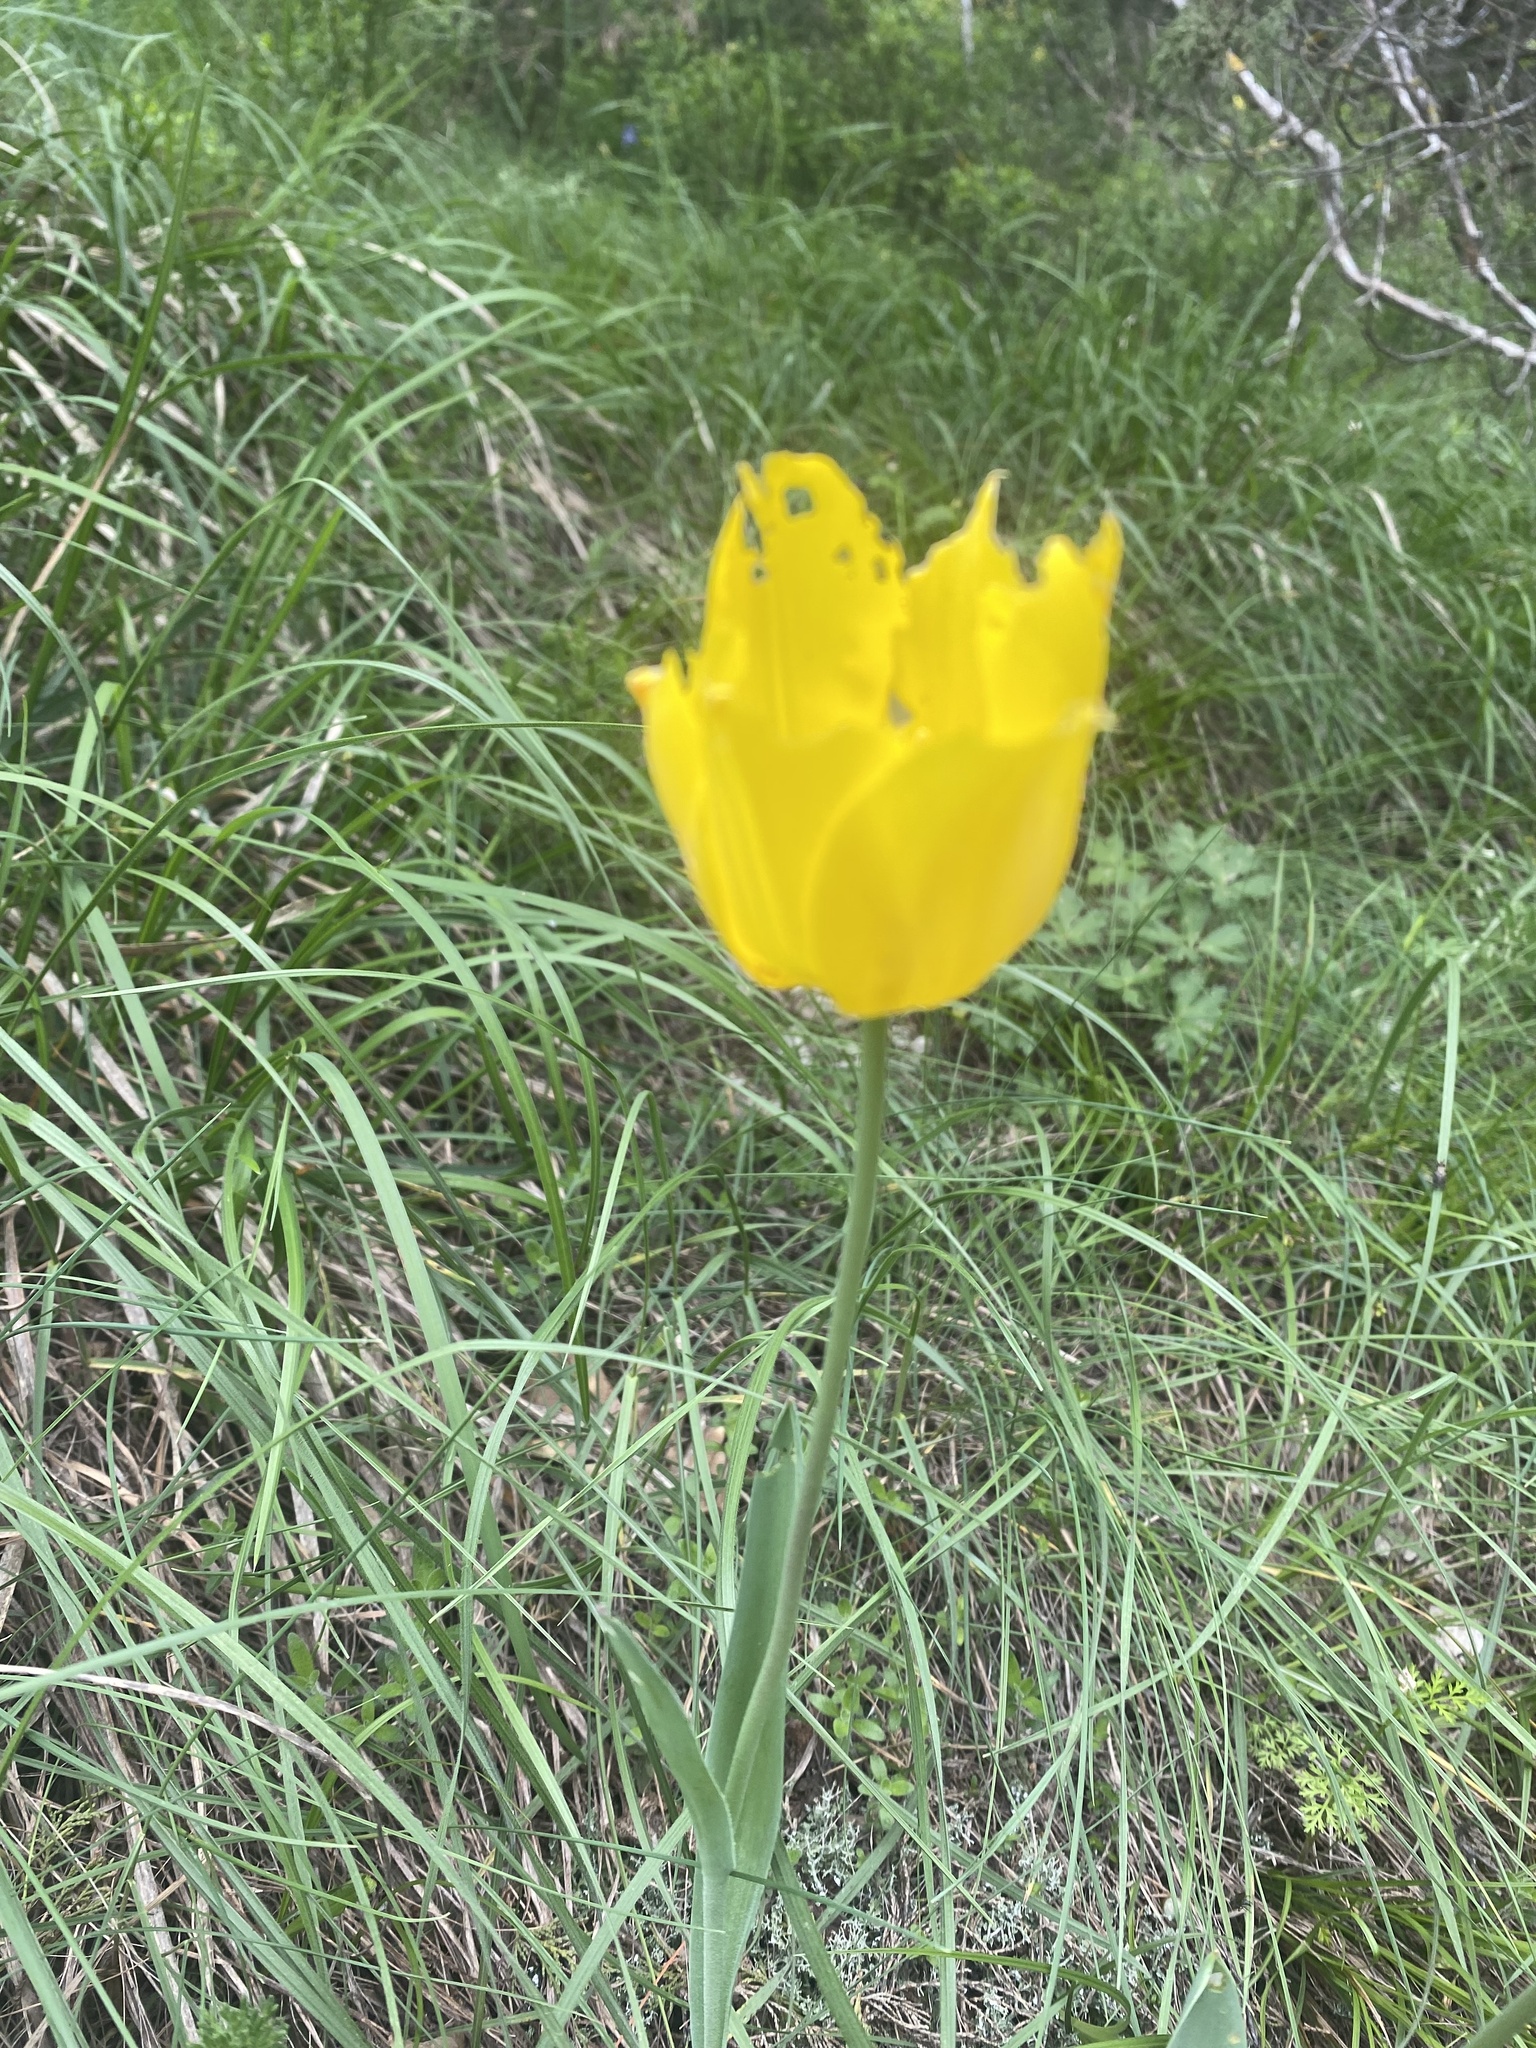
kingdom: Plantae
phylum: Tracheophyta
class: Liliopsida
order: Liliales
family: Liliaceae
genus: Tulipa
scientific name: Tulipa suaveolens
